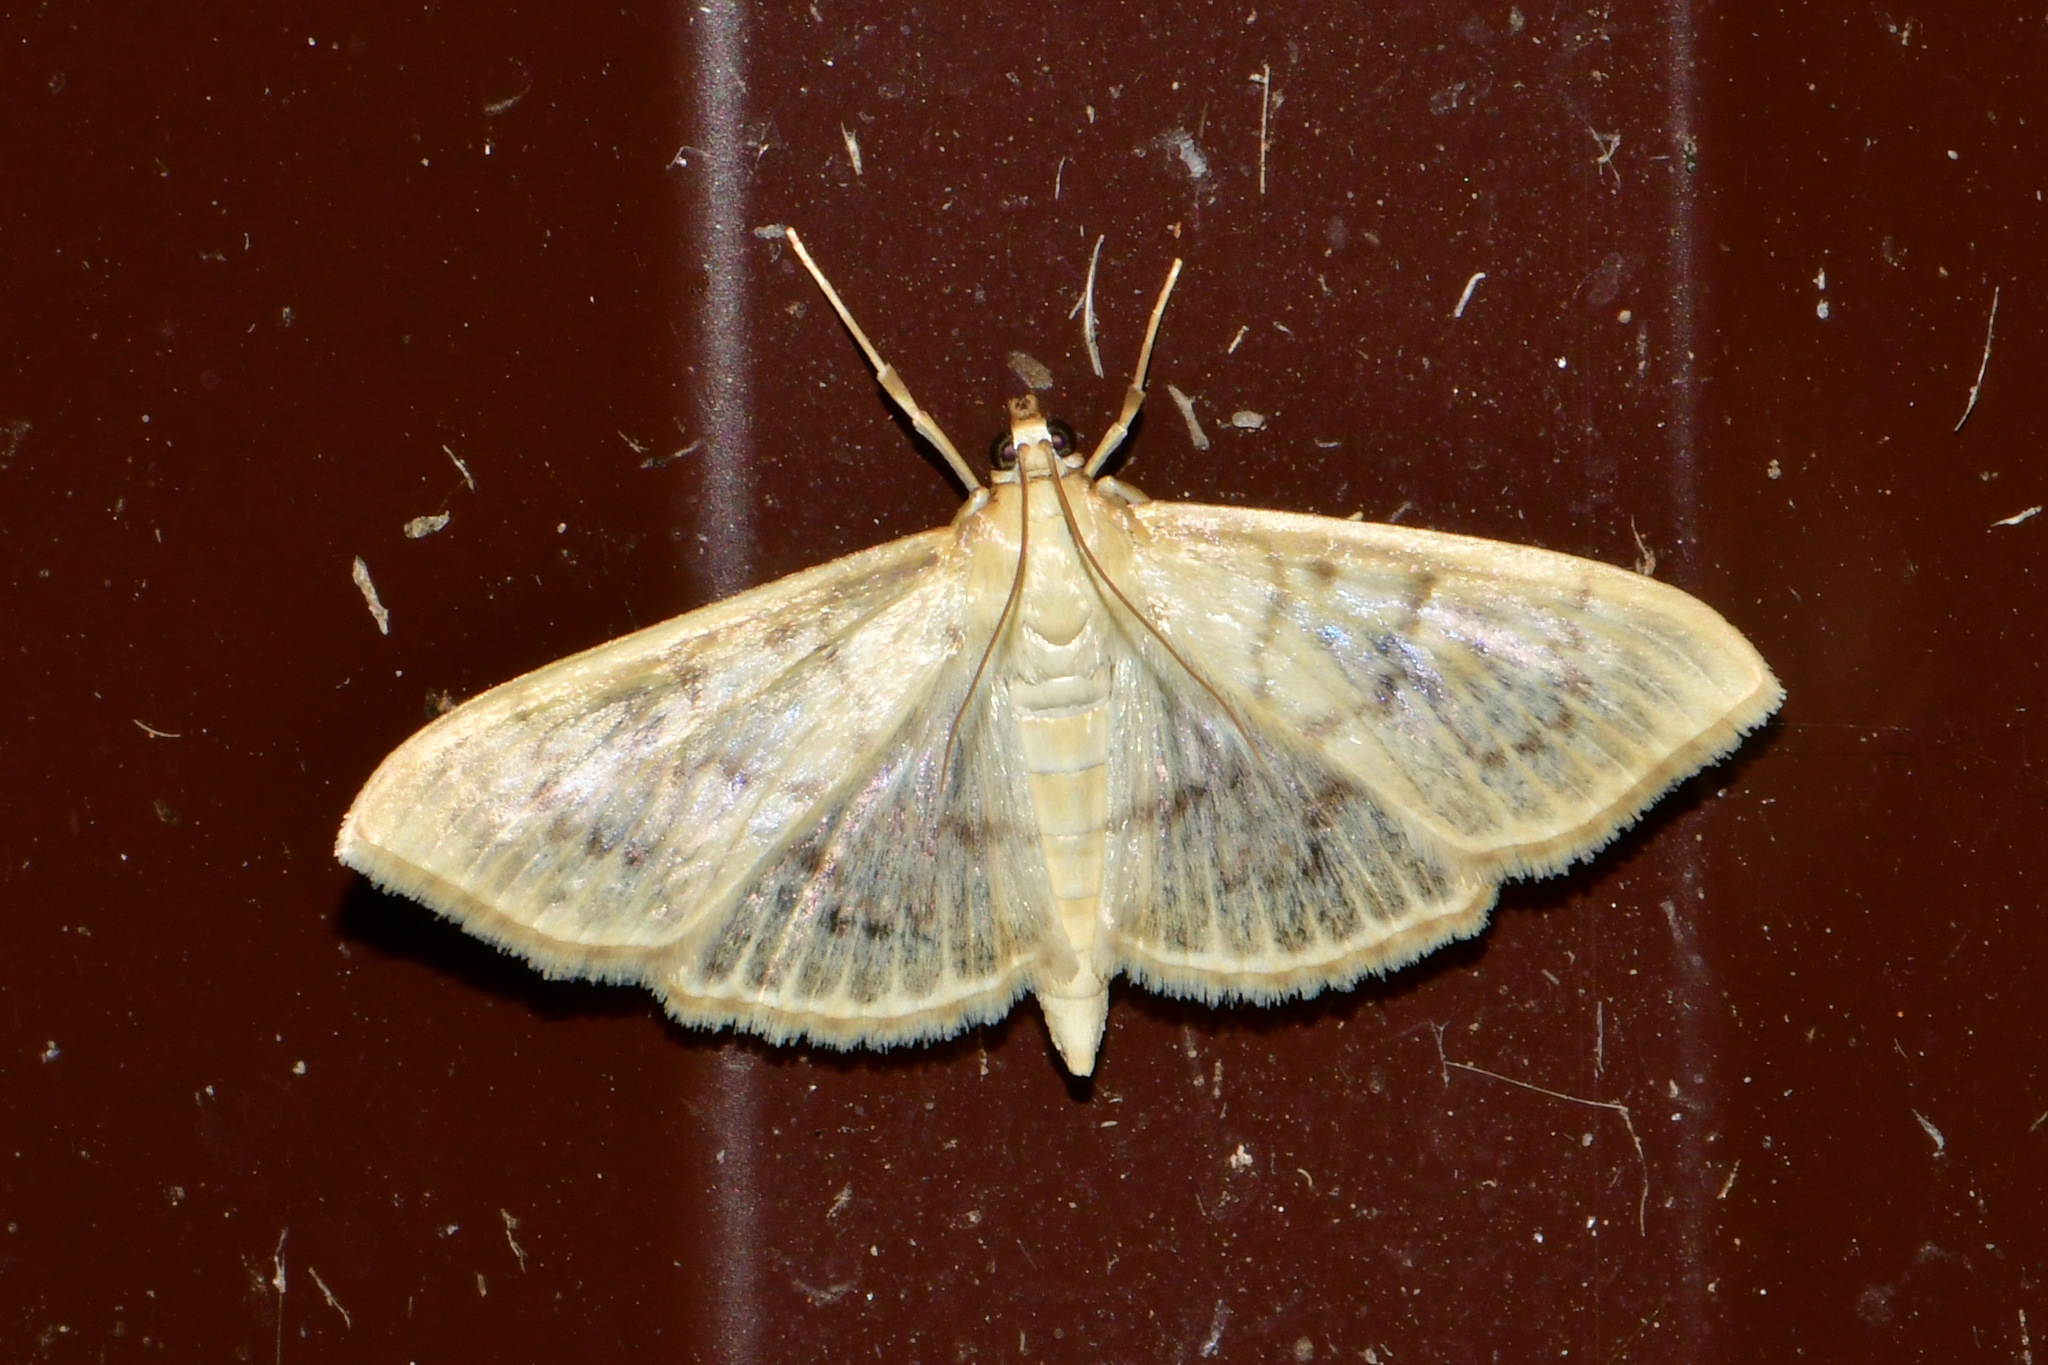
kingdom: Animalia
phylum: Arthropoda
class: Insecta
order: Lepidoptera
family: Crambidae
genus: Patania
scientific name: Patania ruralis
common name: Mother of pearl
